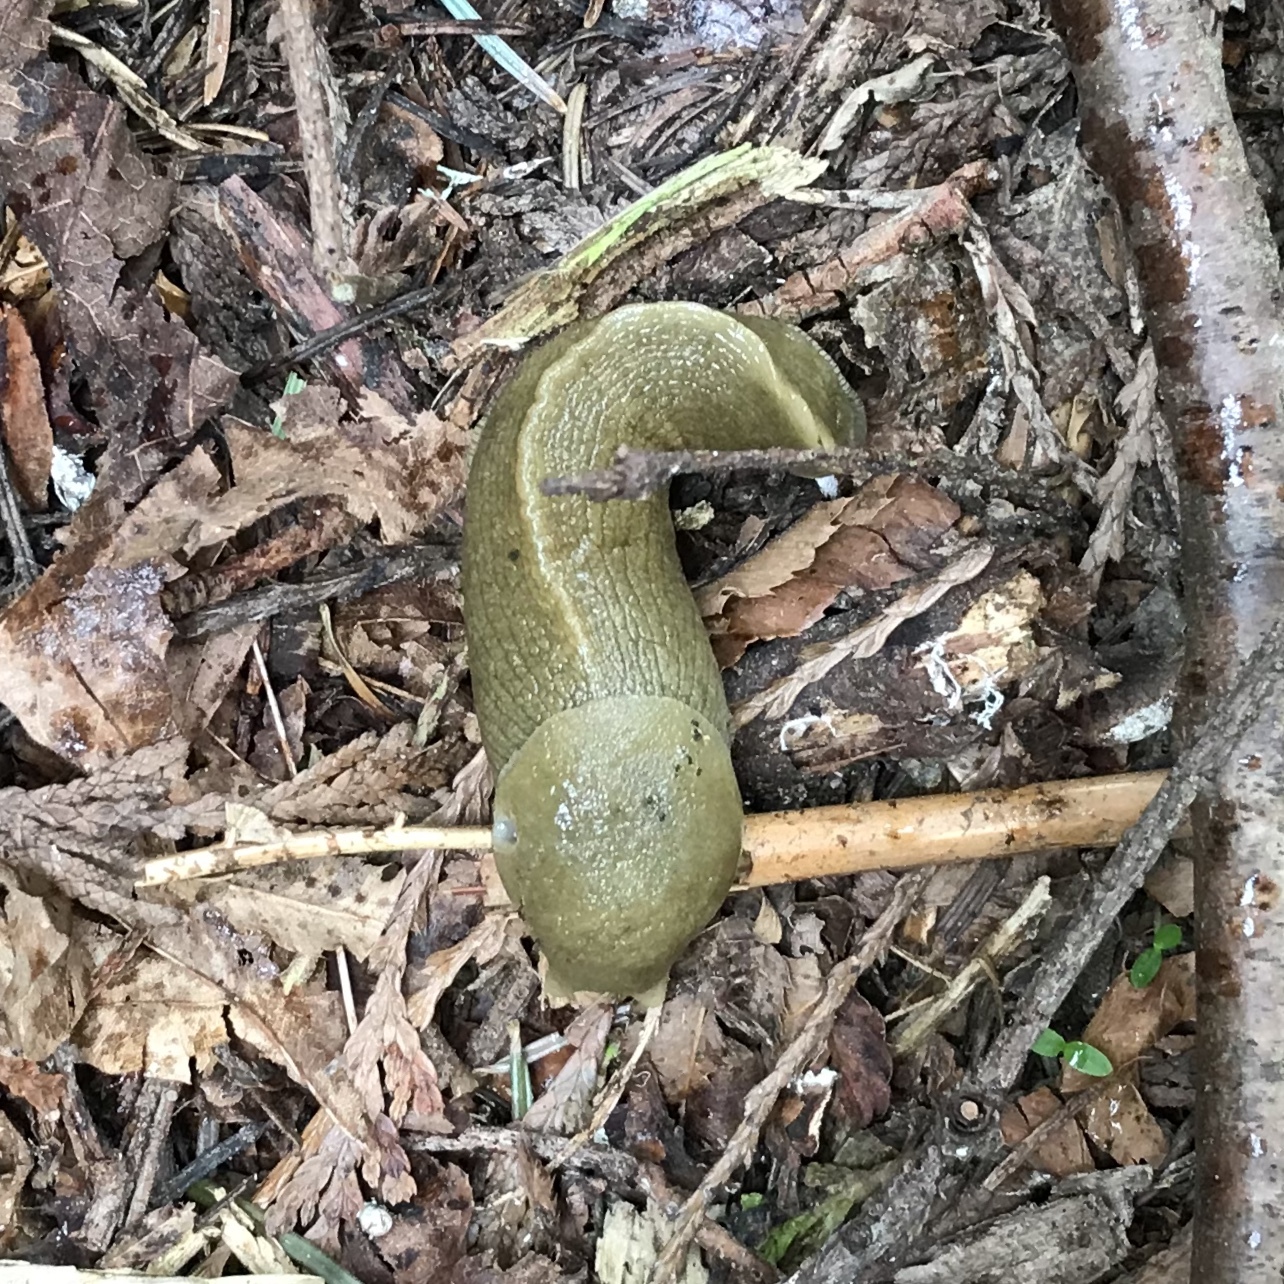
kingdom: Animalia
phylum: Mollusca
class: Gastropoda
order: Stylommatophora
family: Ariolimacidae
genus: Ariolimax
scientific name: Ariolimax columbianus
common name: Pacific banana slug
